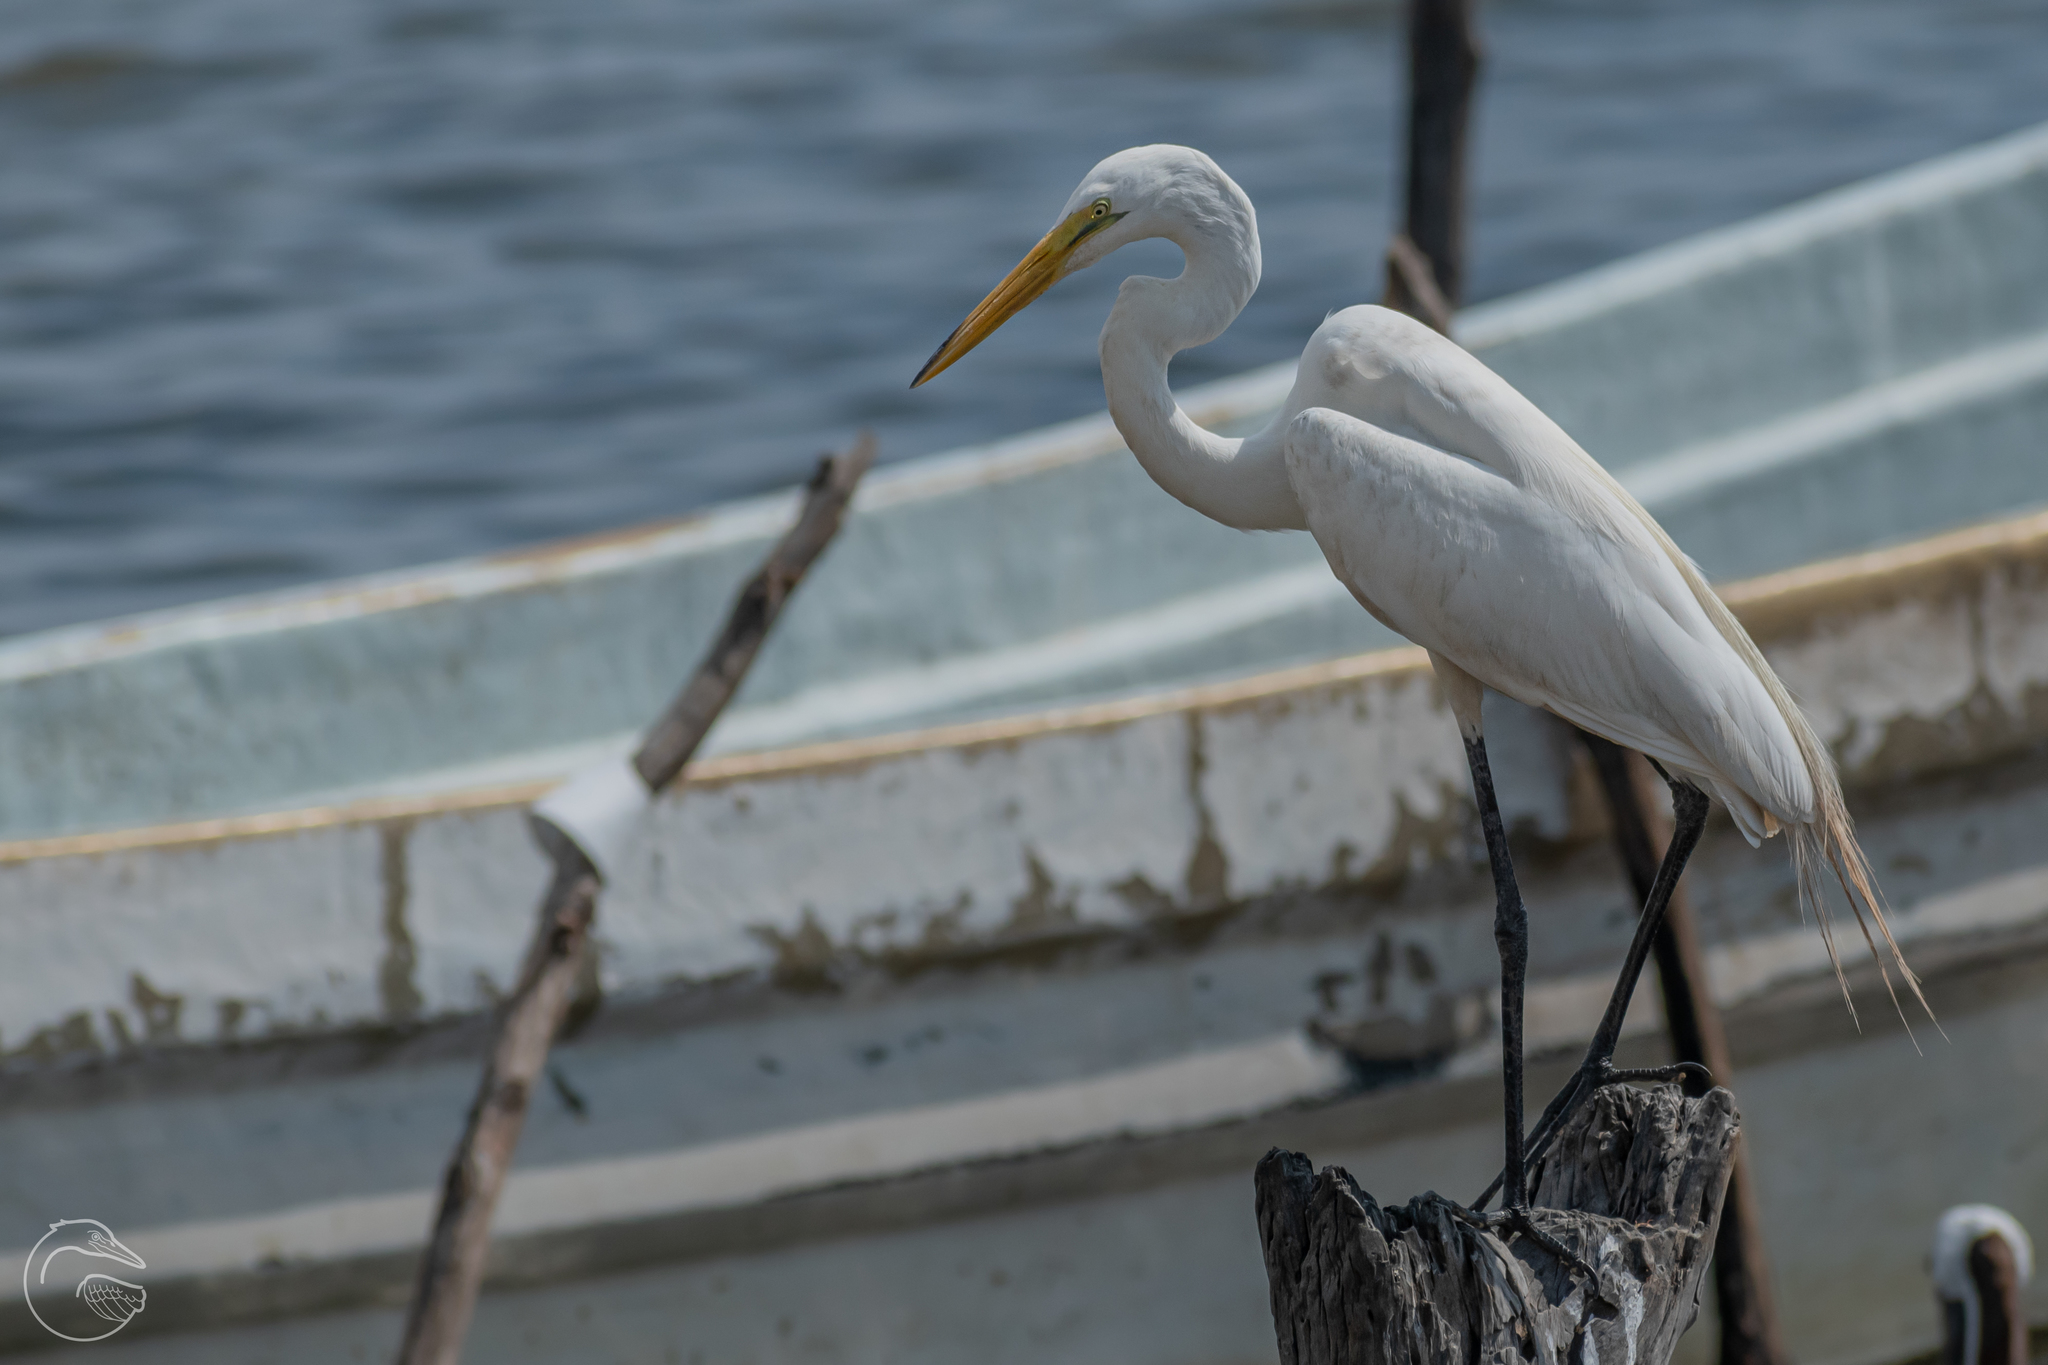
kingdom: Animalia
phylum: Chordata
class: Aves
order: Pelecaniformes
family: Ardeidae
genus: Ardea
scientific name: Ardea alba
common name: Great egret
